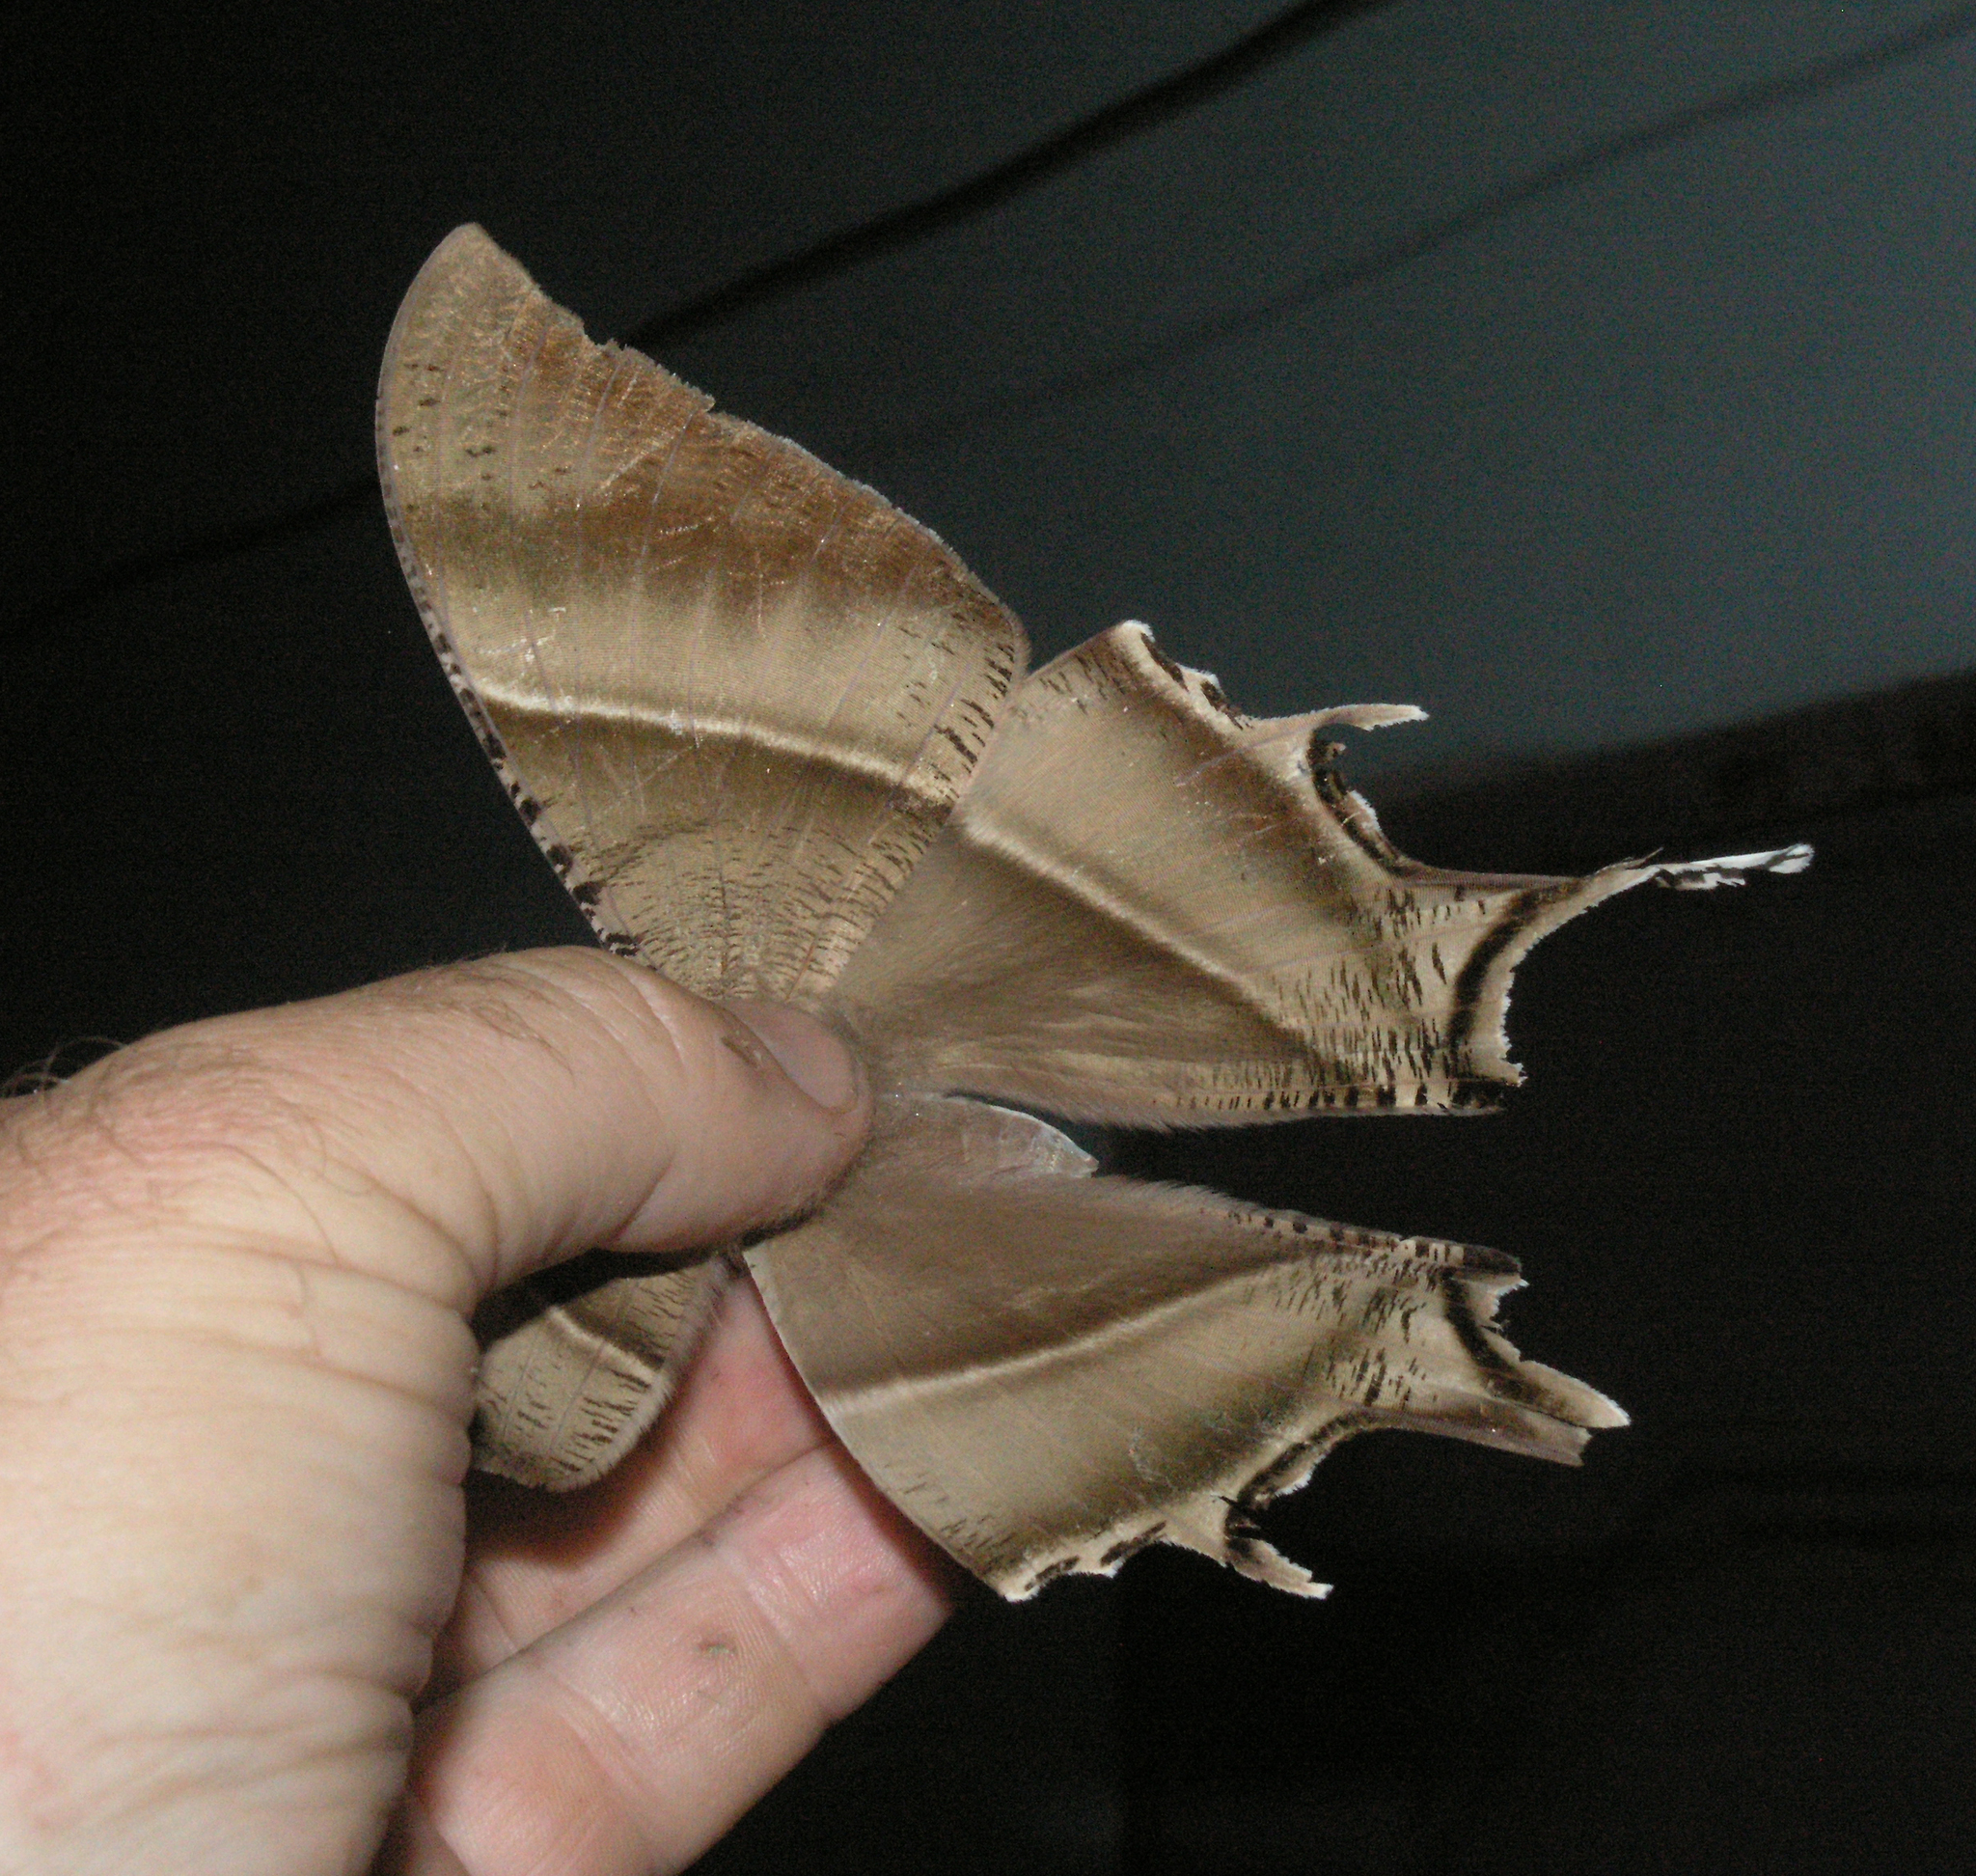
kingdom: Animalia
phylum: Arthropoda
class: Insecta
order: Lepidoptera
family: Uraniidae
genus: Lyssa
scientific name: Lyssa zampa
